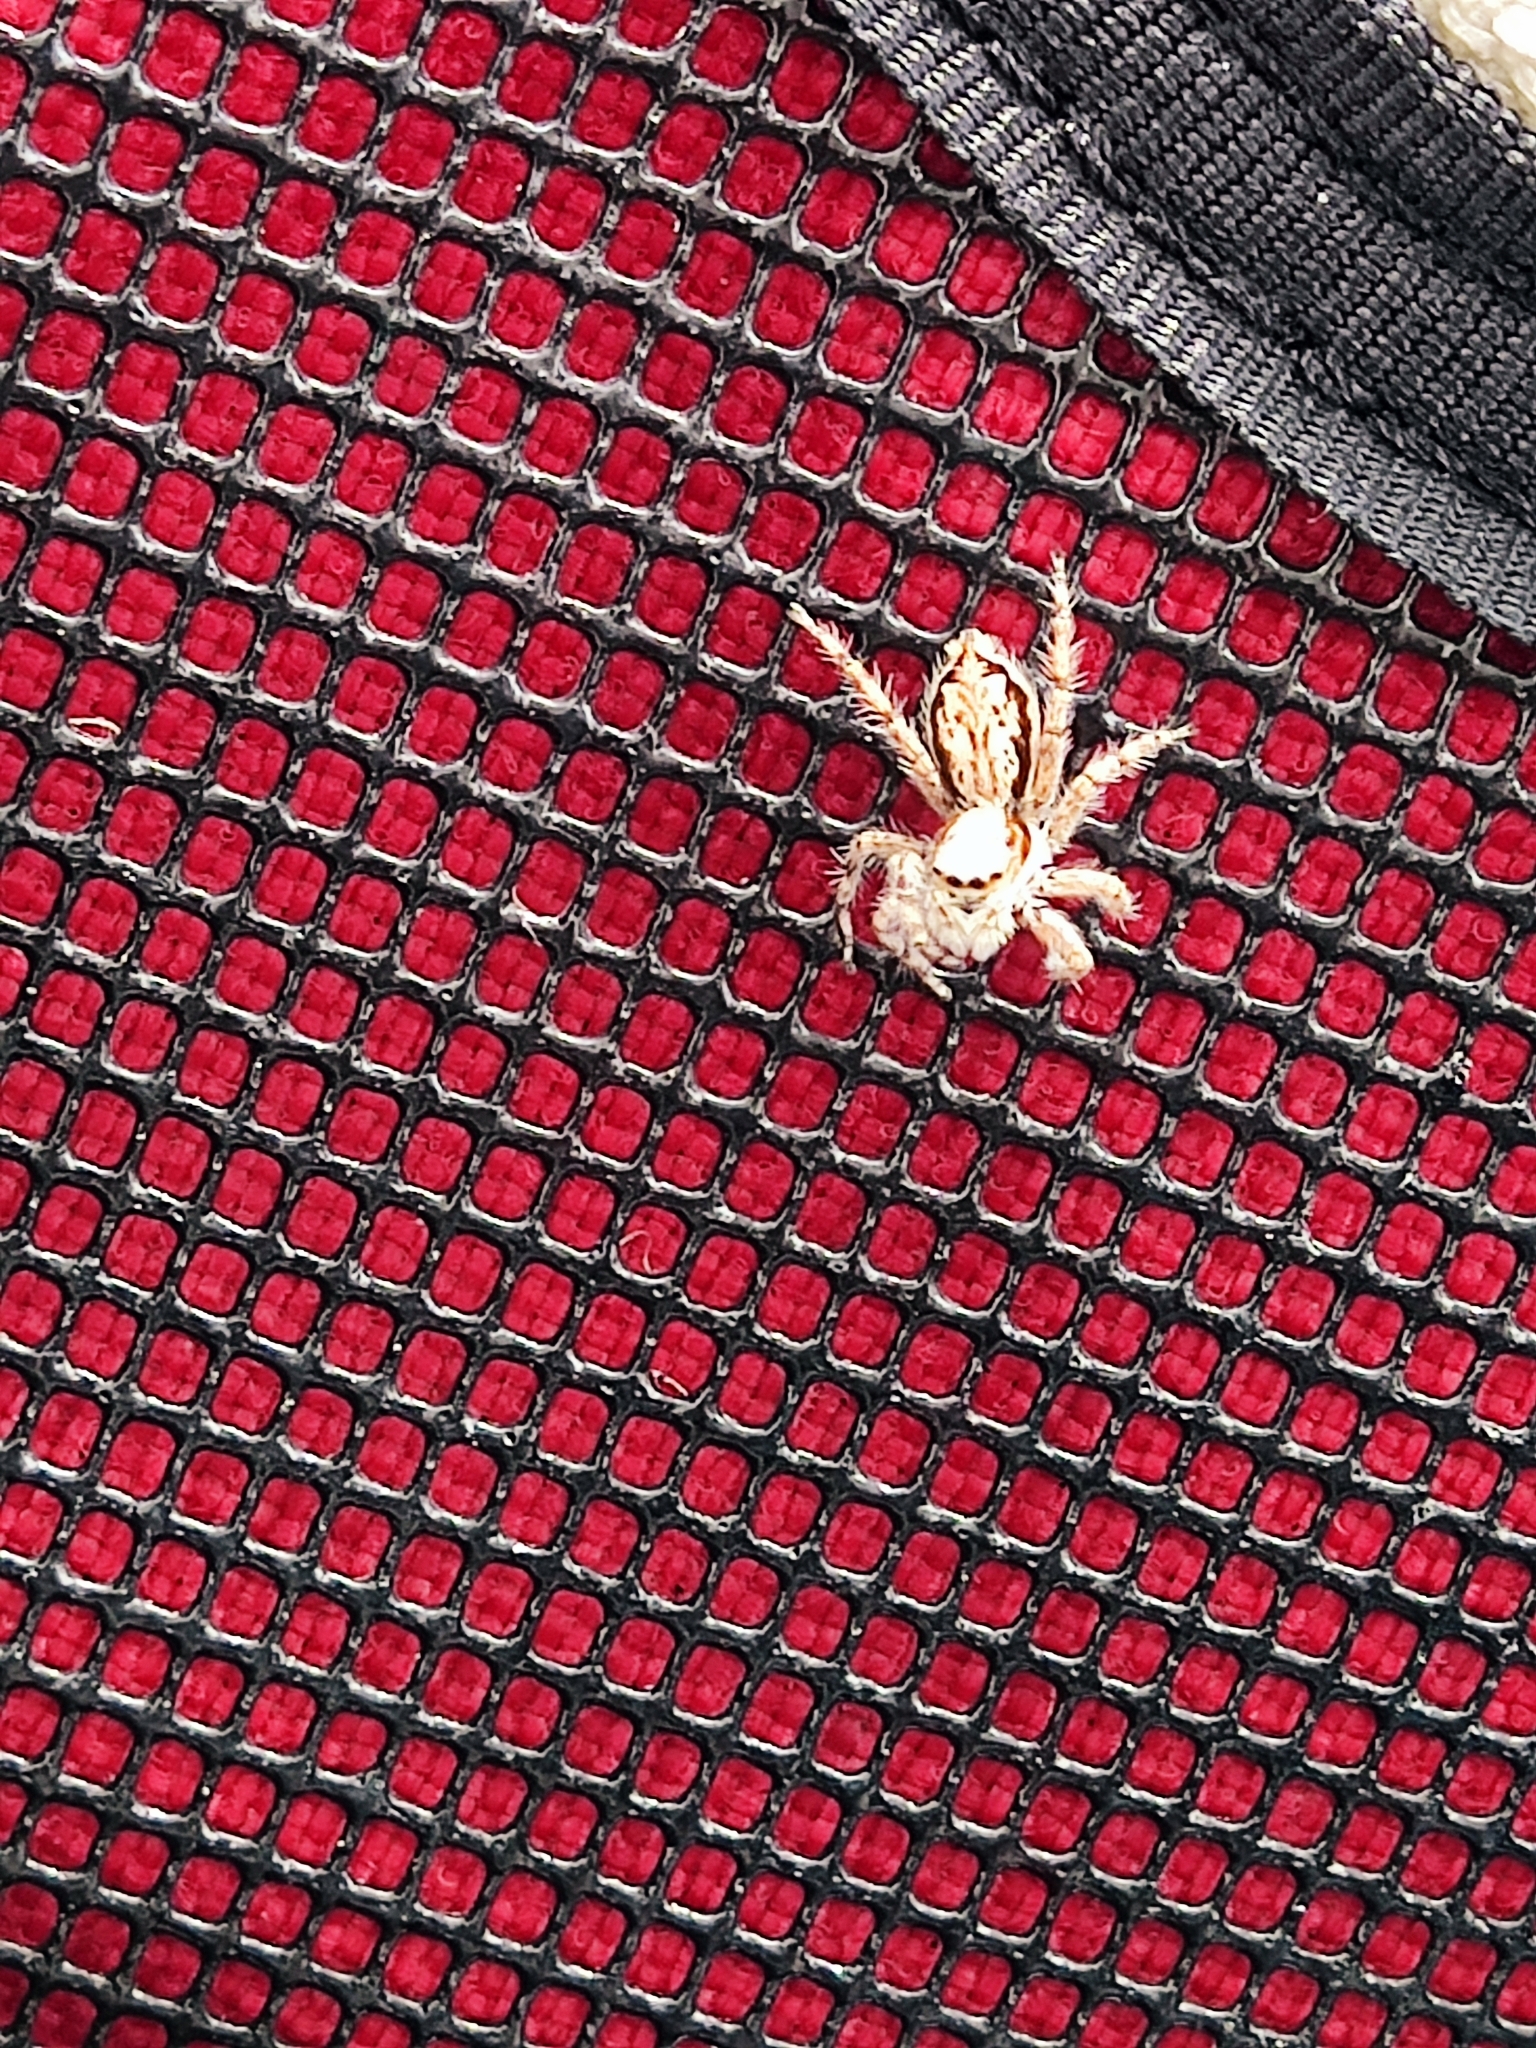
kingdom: Animalia
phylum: Arthropoda
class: Arachnida
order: Araneae
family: Salticidae
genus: Menemerus
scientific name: Menemerus bivittatus
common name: Gray wall jumper
